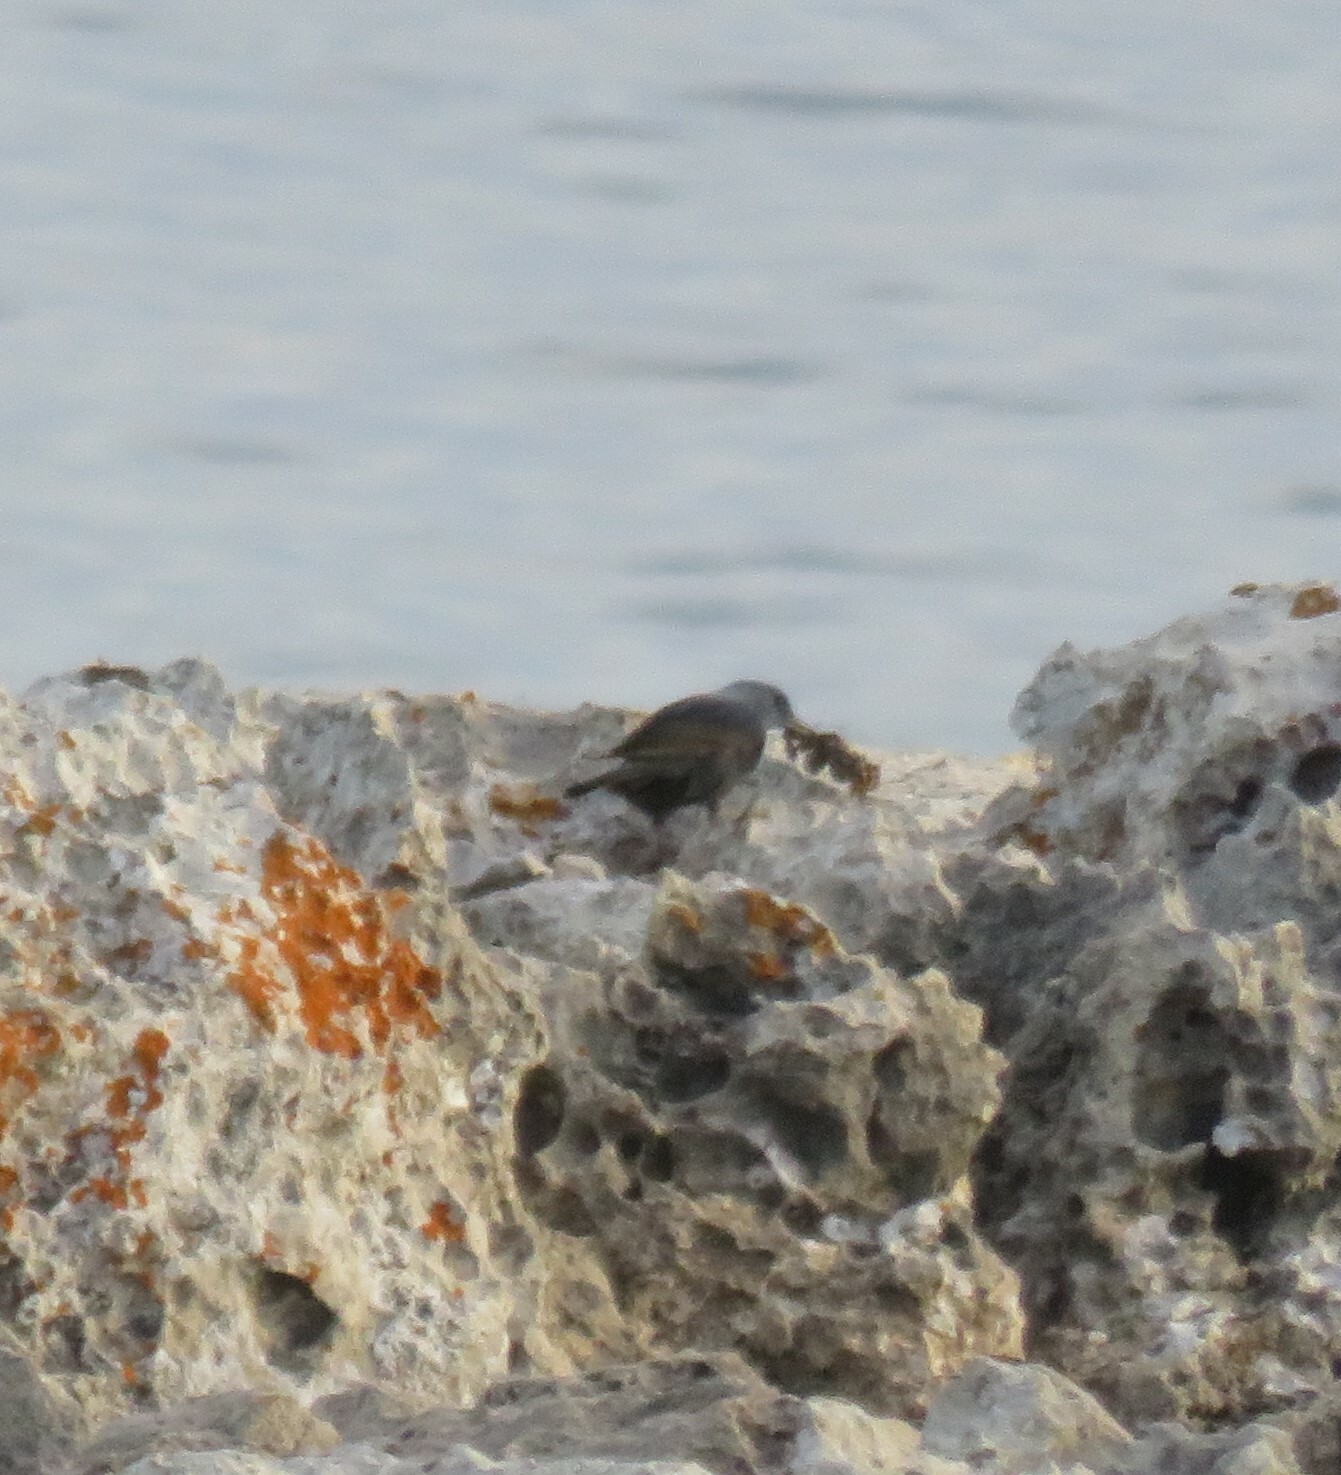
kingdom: Animalia
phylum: Chordata
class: Aves
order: Passeriformes
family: Muscicapidae
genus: Monticola
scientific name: Monticola solitarius
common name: Blue rock thrush
